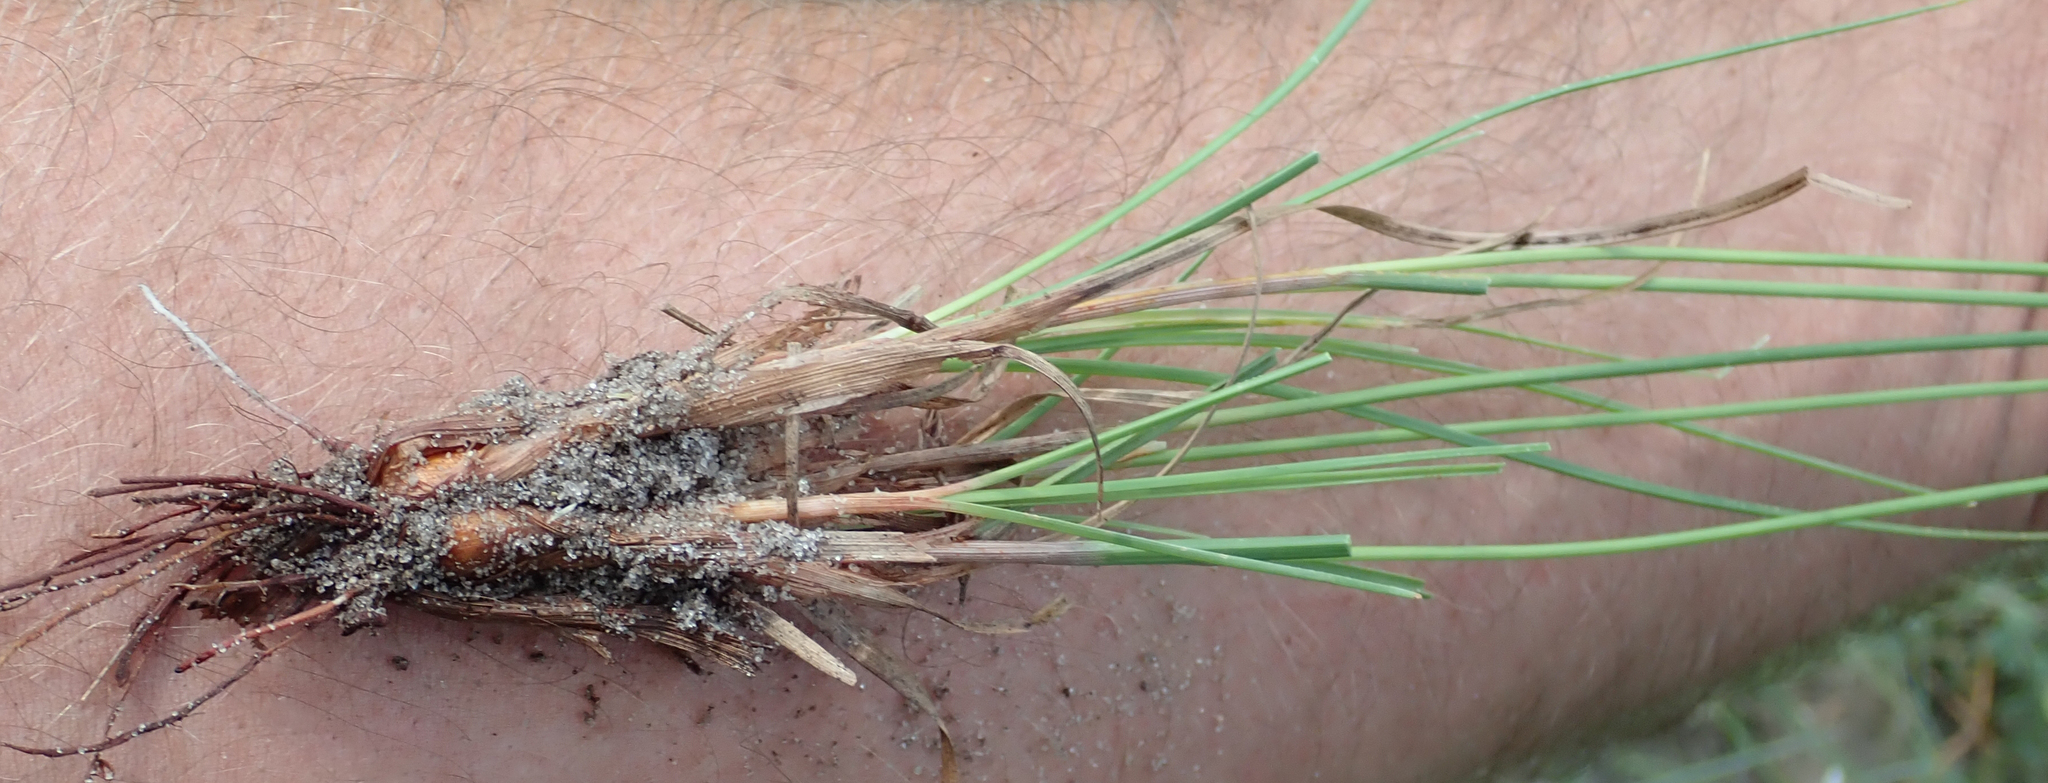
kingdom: Plantae
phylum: Tracheophyta
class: Liliopsida
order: Poales
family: Cyperaceae
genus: Cyperus
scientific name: Cyperus margaritaceus
